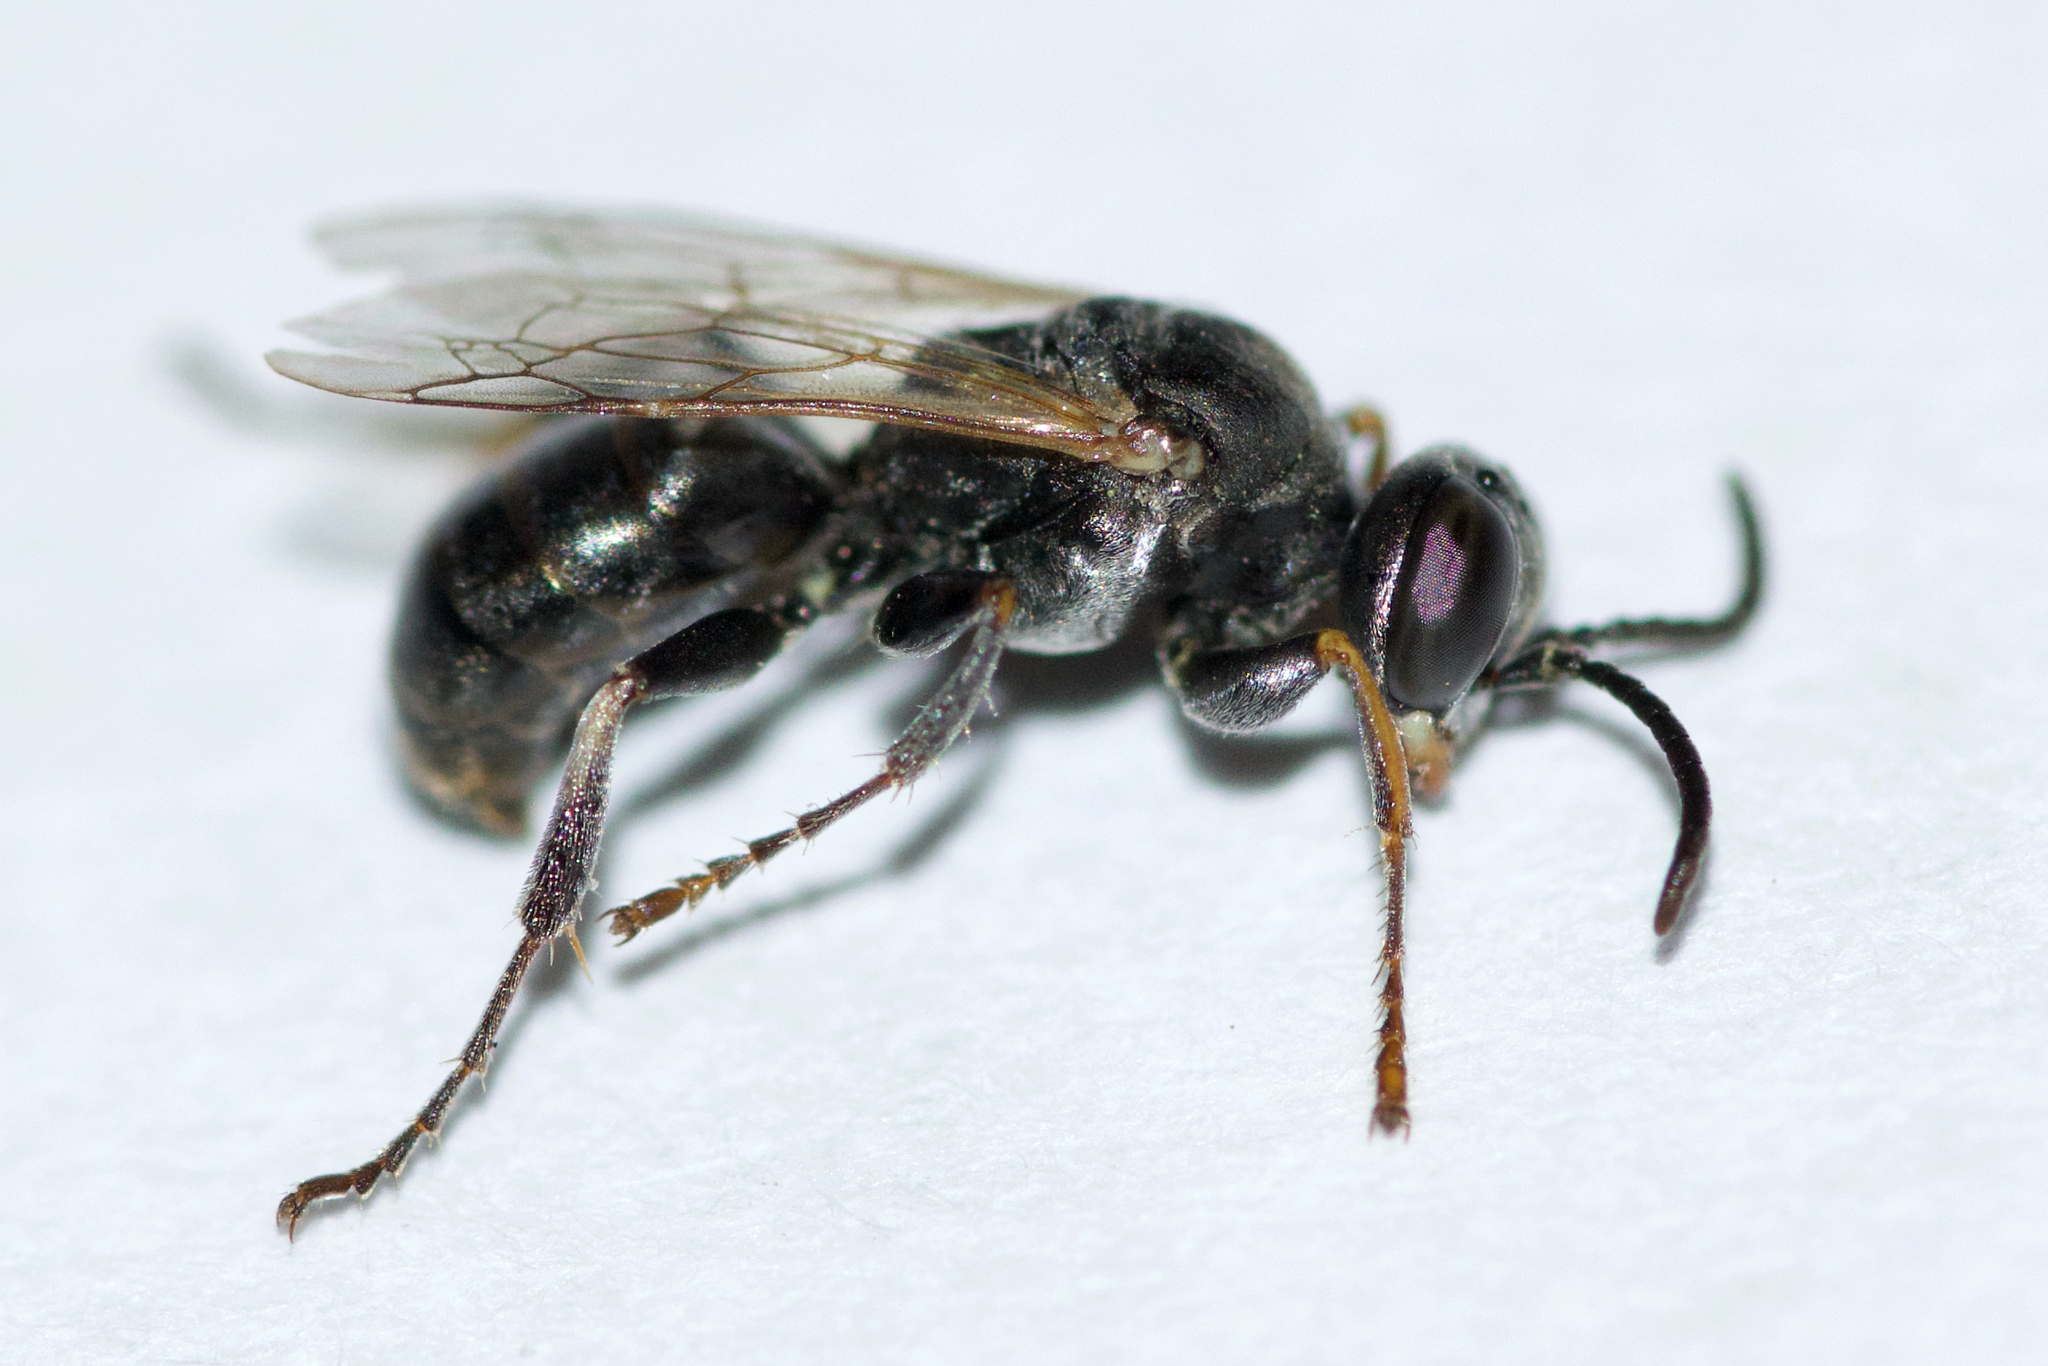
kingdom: Animalia
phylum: Arthropoda
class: Insecta
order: Hymenoptera
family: Crabronidae
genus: Plenoculus
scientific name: Plenoculus davisi
